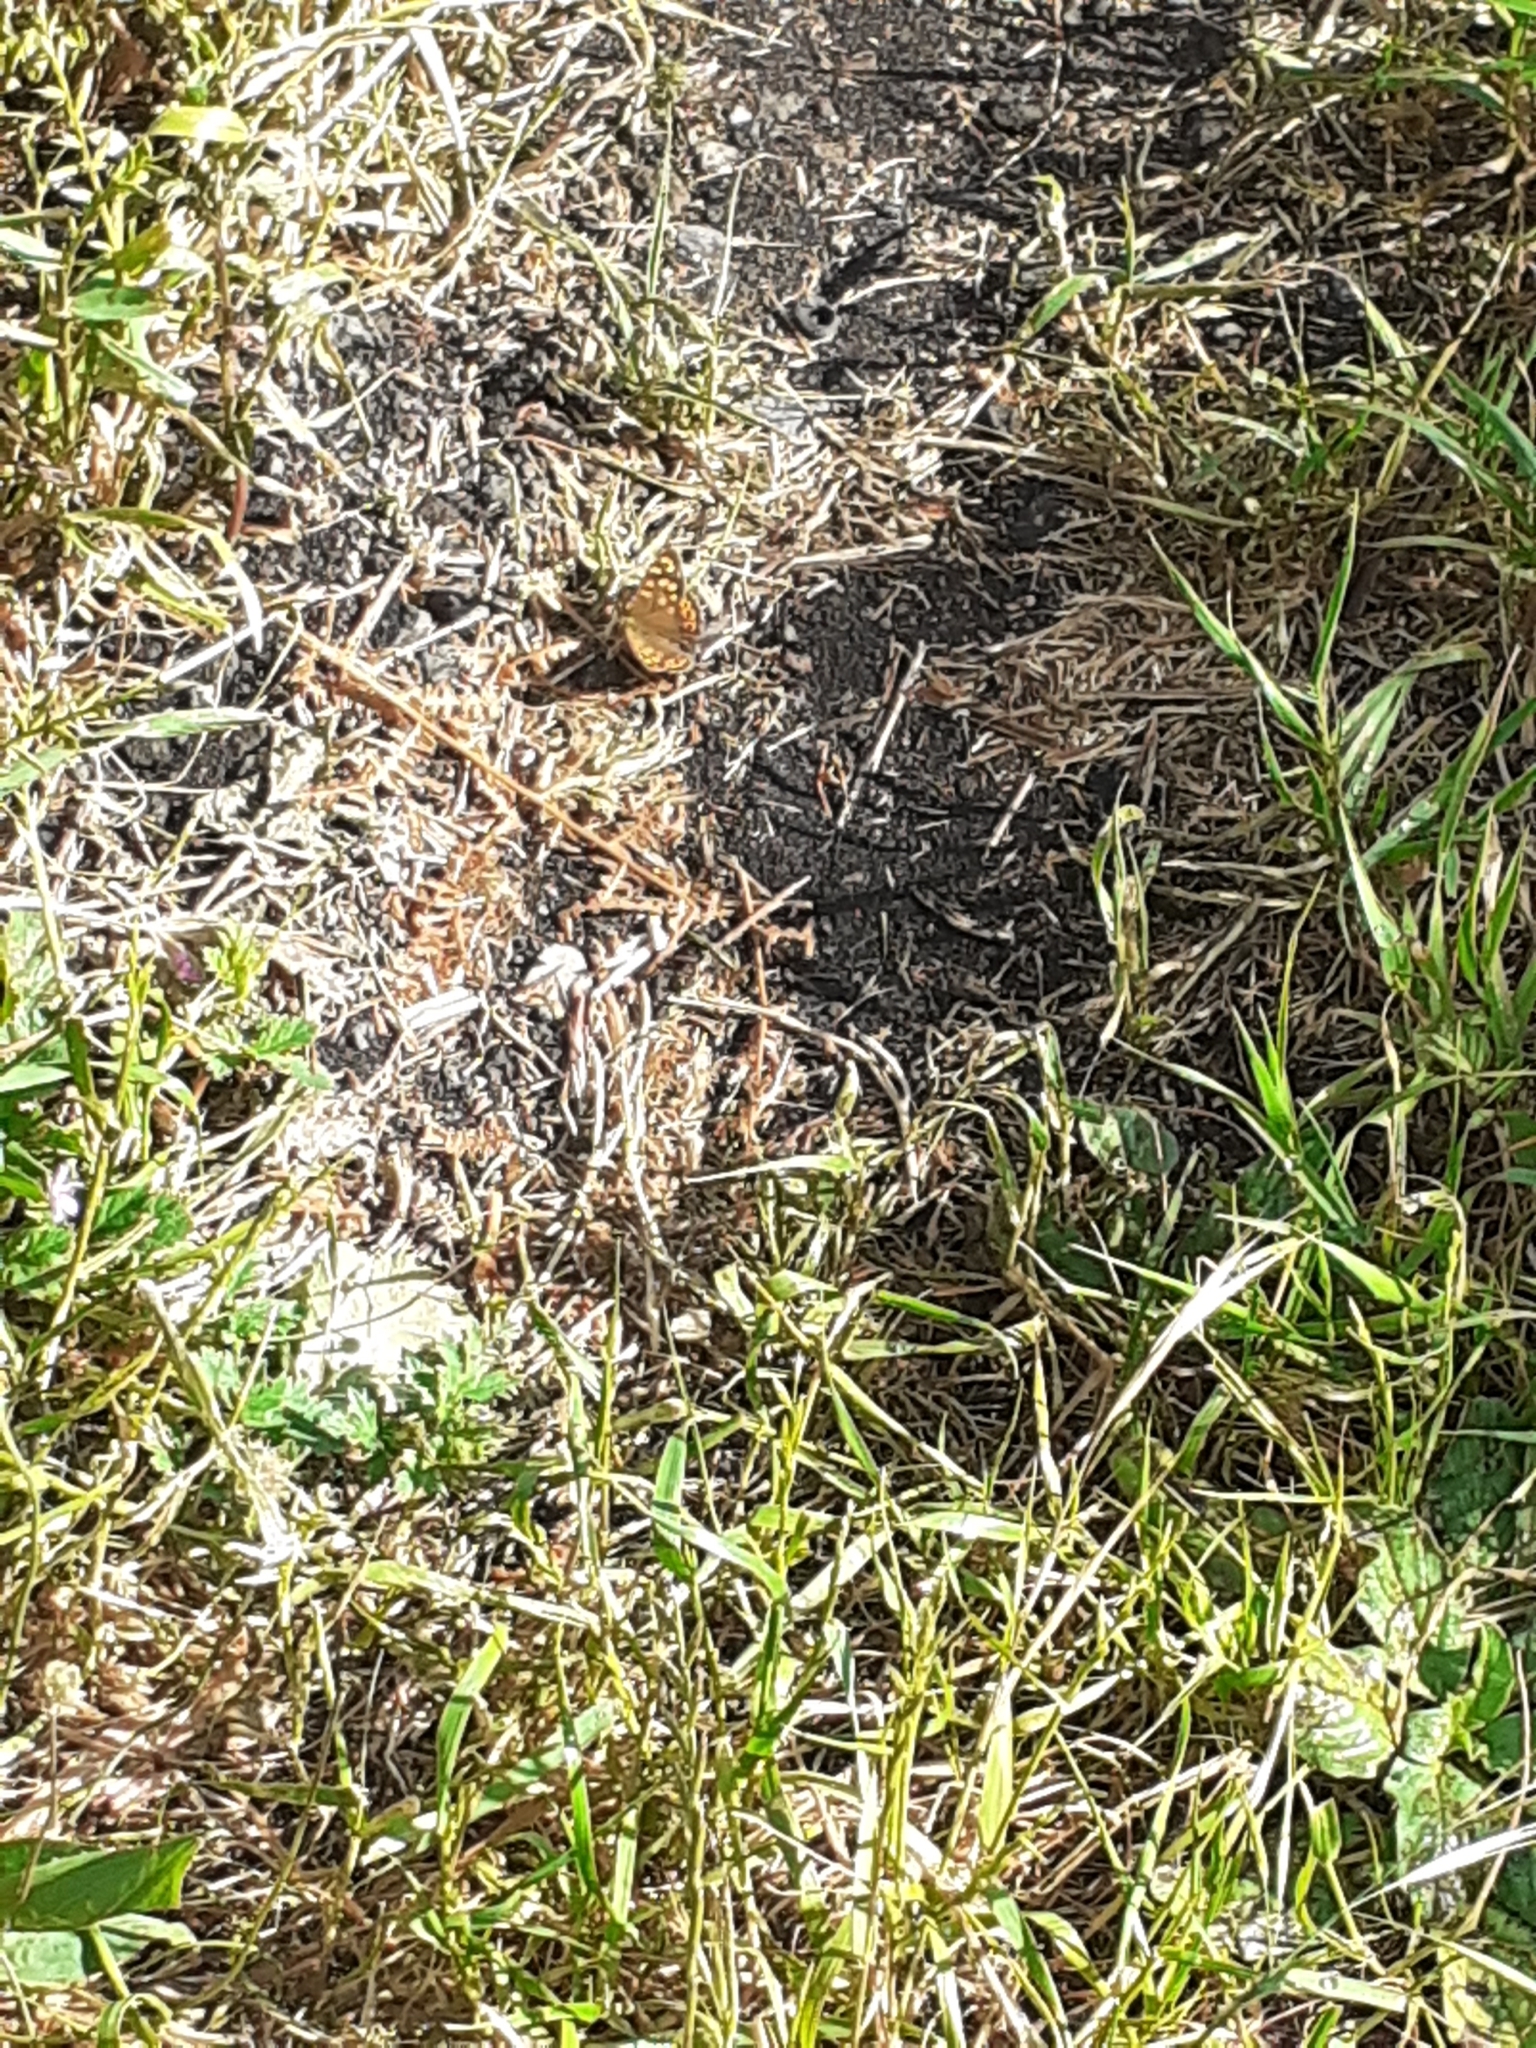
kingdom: Animalia
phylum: Arthropoda
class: Insecta
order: Lepidoptera
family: Nymphalidae
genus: Pararge
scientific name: Pararge aegeria
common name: Speckled wood
